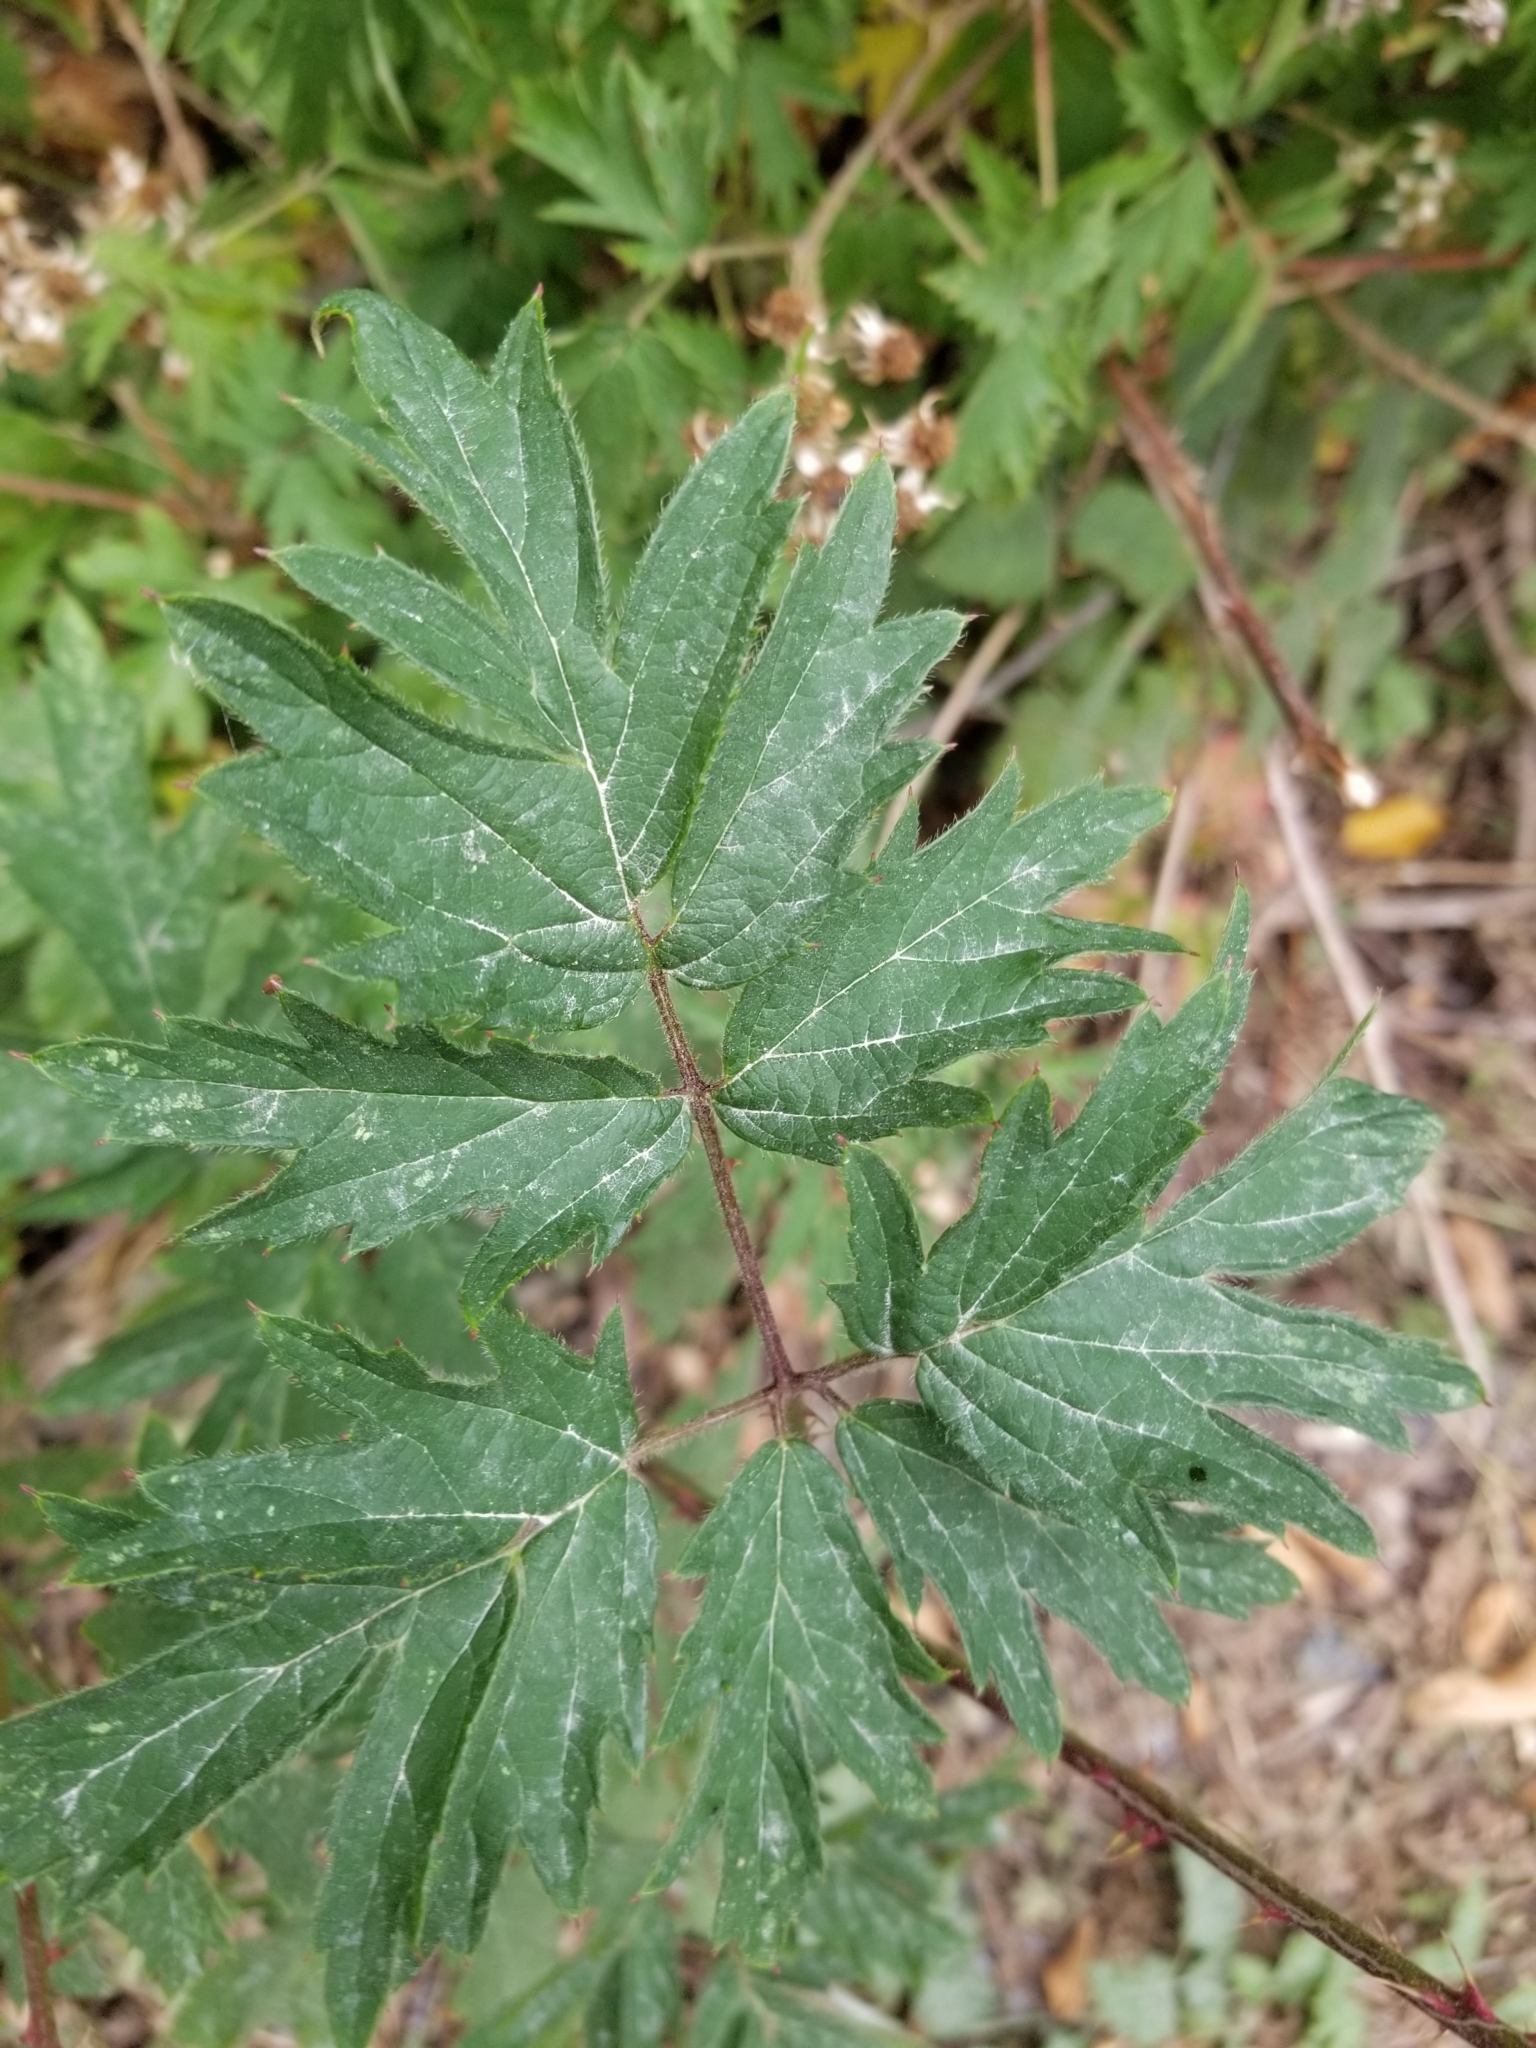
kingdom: Plantae
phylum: Tracheophyta
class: Magnoliopsida
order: Rosales
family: Rosaceae
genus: Rubus
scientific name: Rubus laciniatus
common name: Evergreen blackberry
